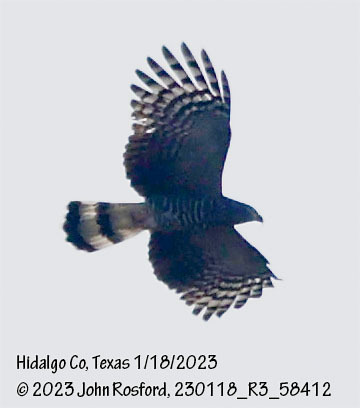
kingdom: Animalia
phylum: Chordata
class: Aves
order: Accipitriformes
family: Accipitridae
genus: Chondrohierax
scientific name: Chondrohierax uncinatus
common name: Hook-billed kite
